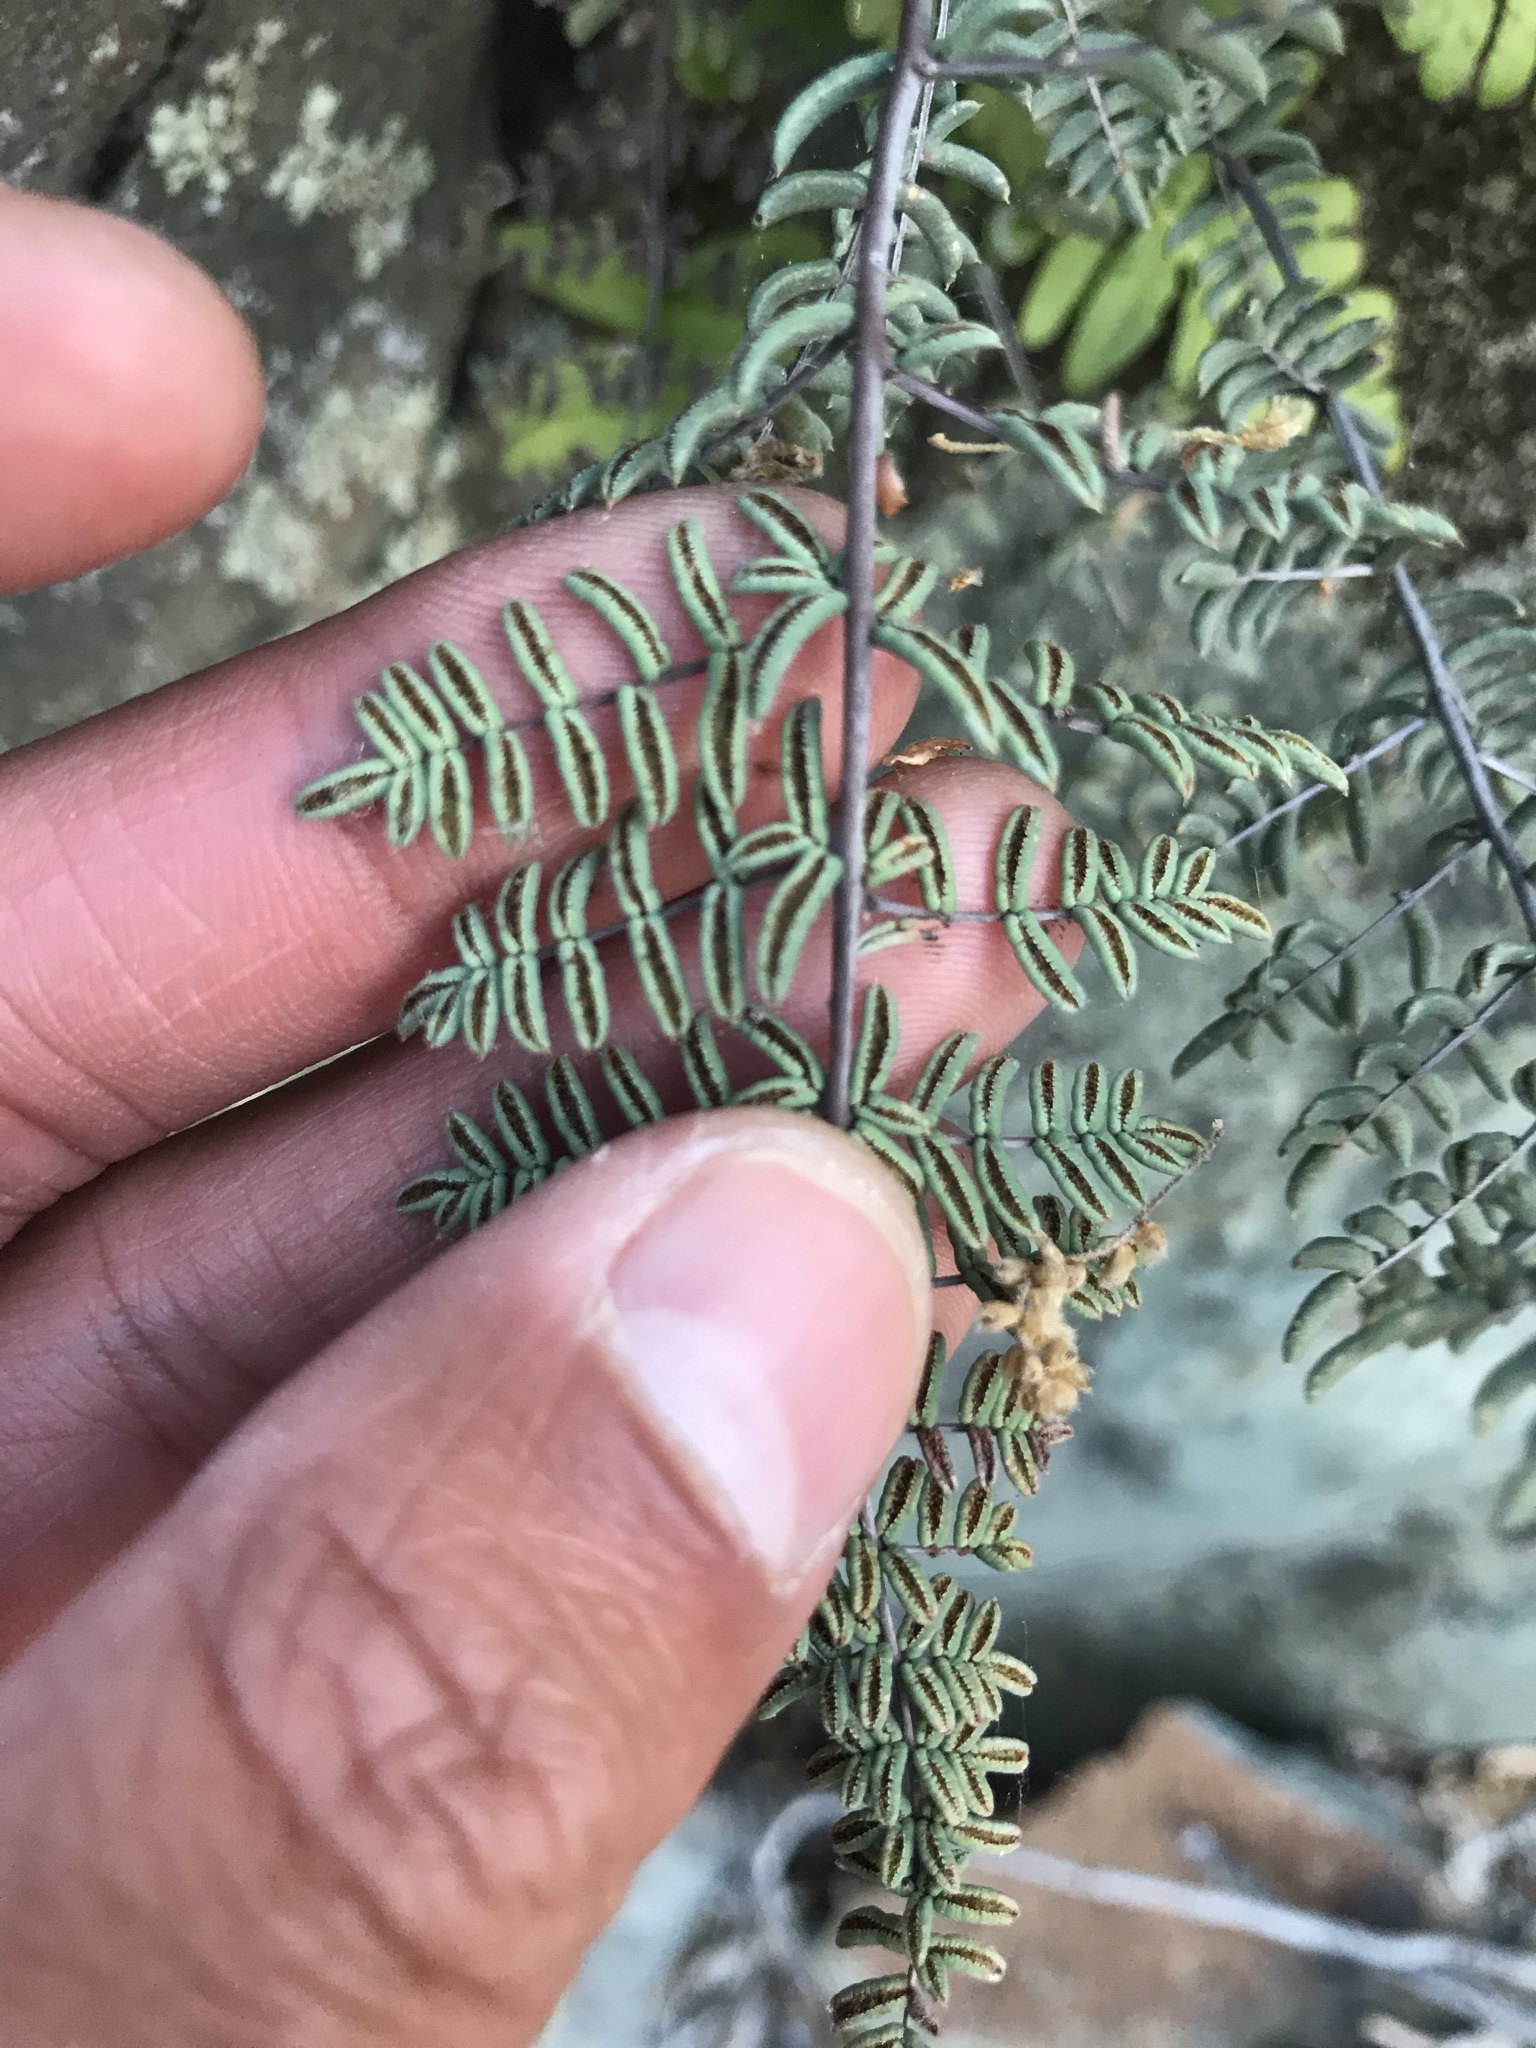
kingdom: Plantae
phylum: Tracheophyta
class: Polypodiopsida
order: Polypodiales
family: Pteridaceae
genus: Pellaea
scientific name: Pellaea mucronata
